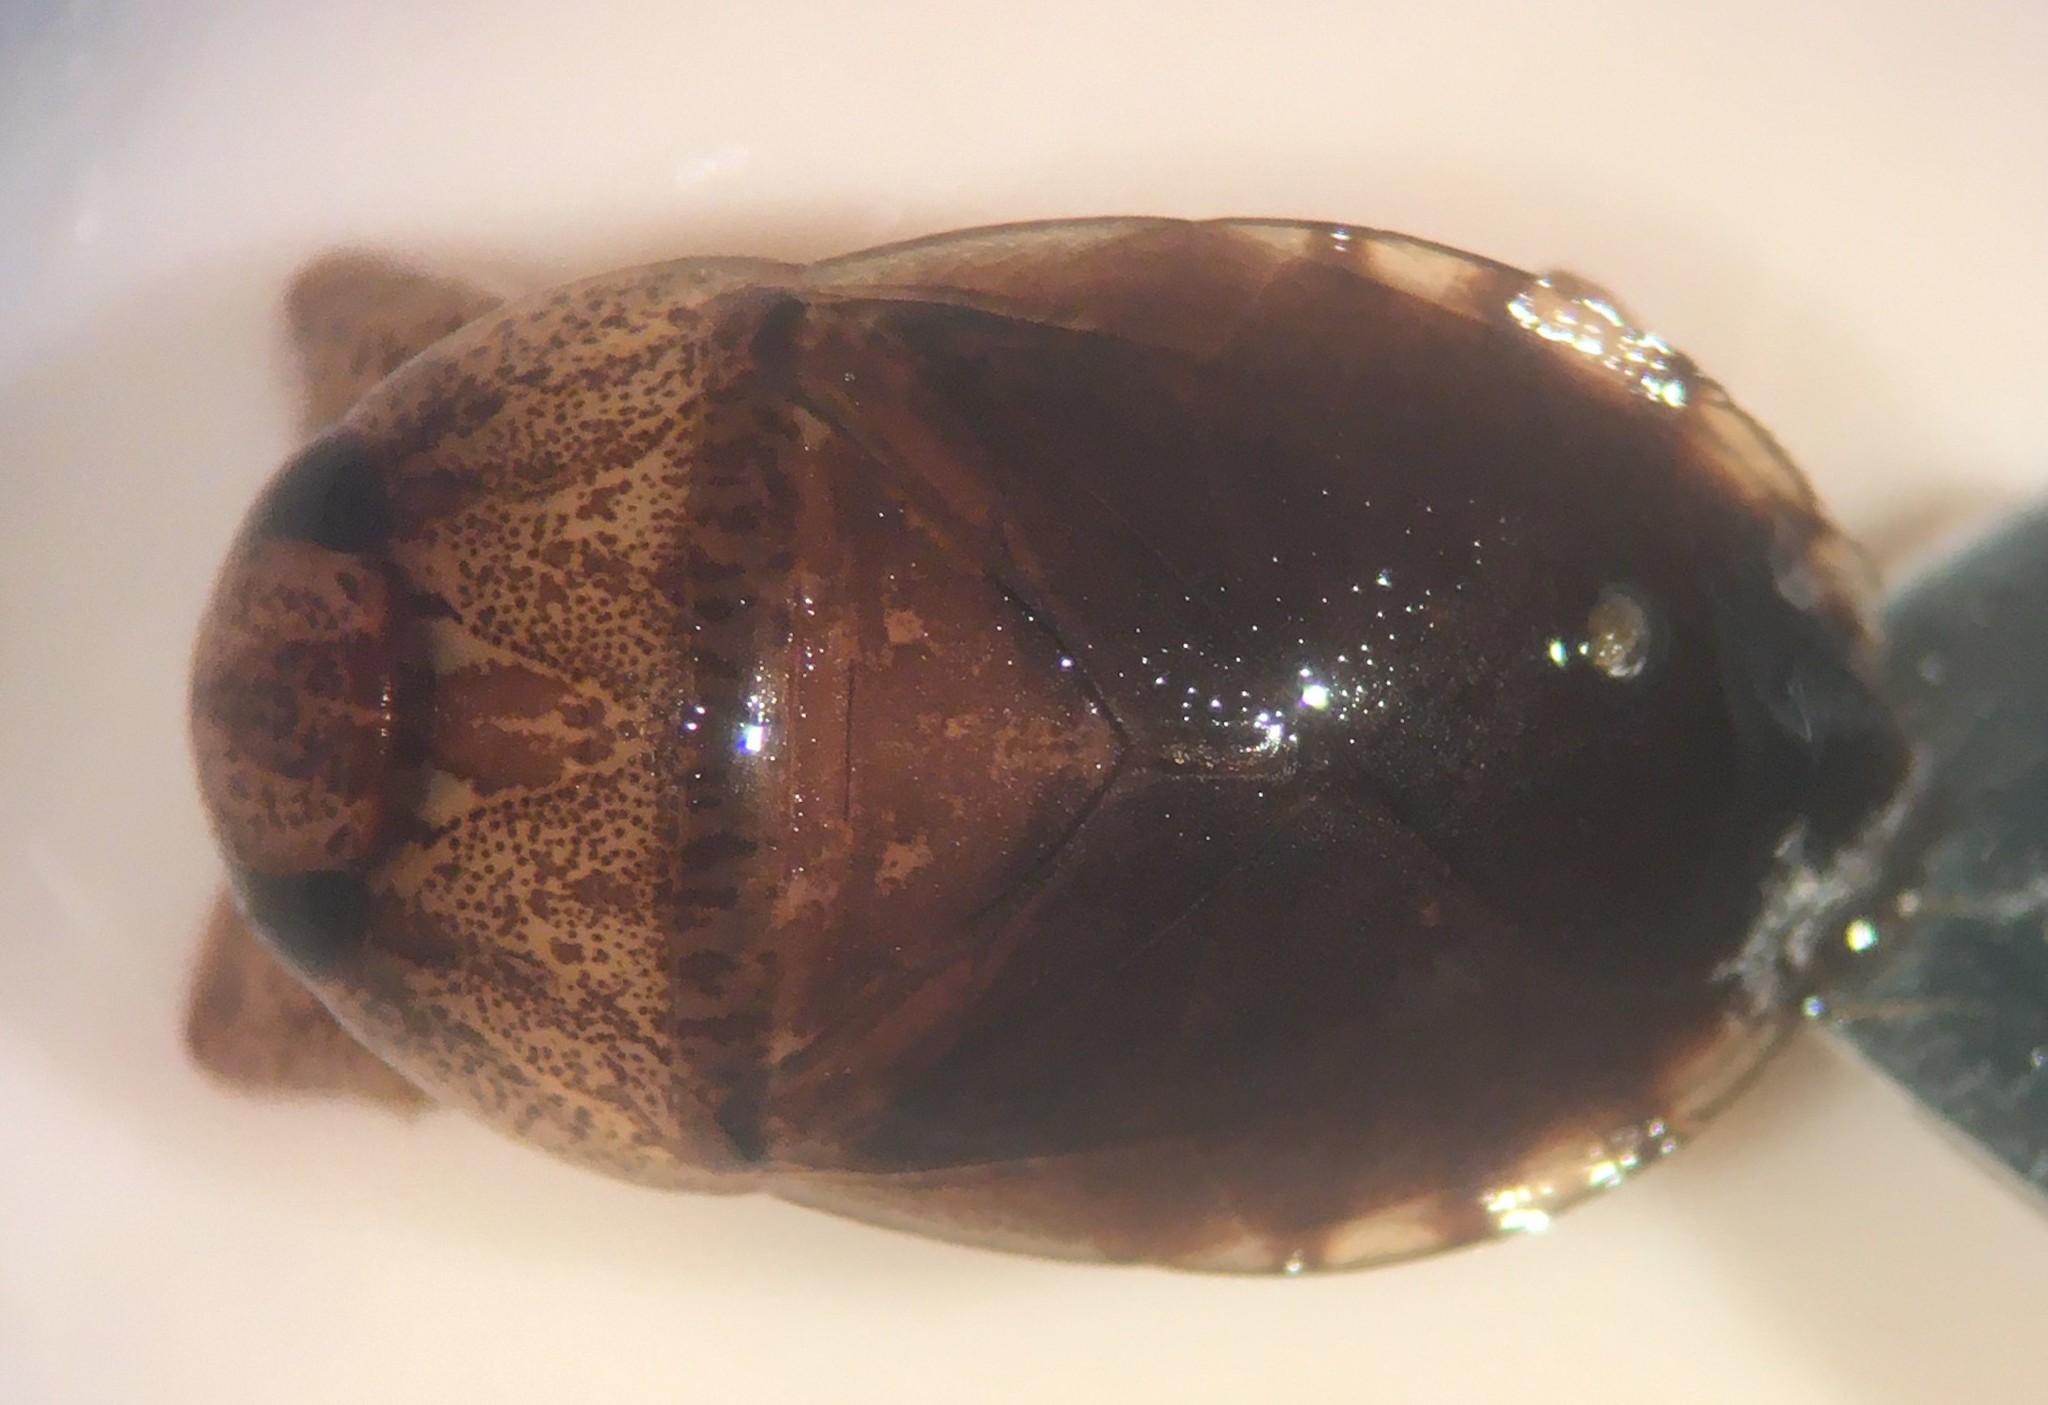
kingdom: Animalia
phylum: Arthropoda
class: Insecta
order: Hemiptera
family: Naucoridae
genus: Pelocoris
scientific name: Pelocoris balius
